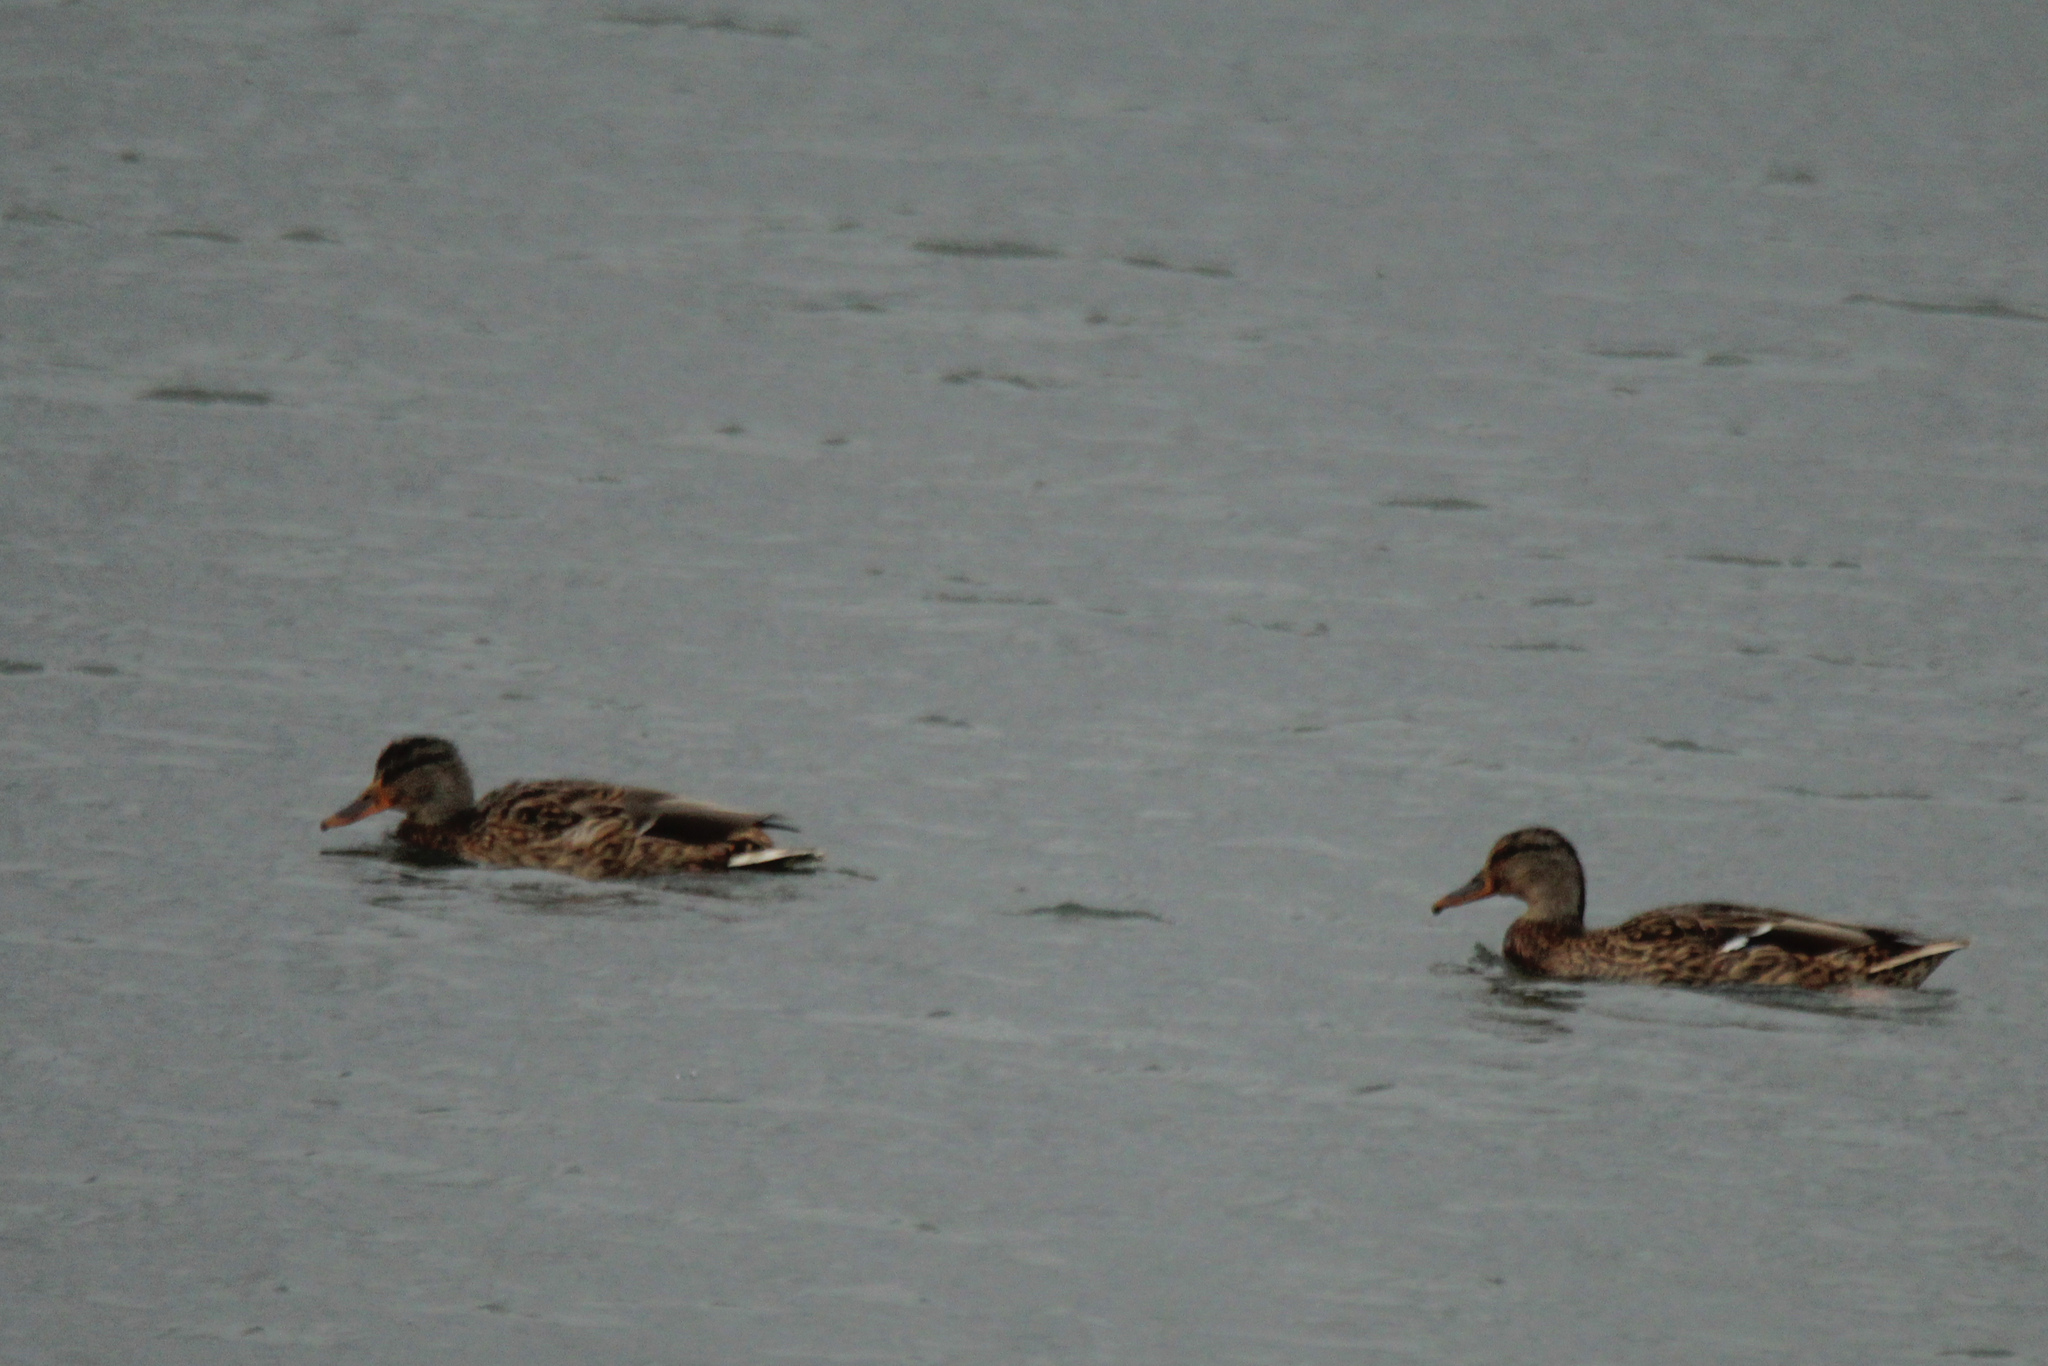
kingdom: Animalia
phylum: Chordata
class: Aves
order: Anseriformes
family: Anatidae
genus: Anas
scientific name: Anas platyrhynchos
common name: Mallard
